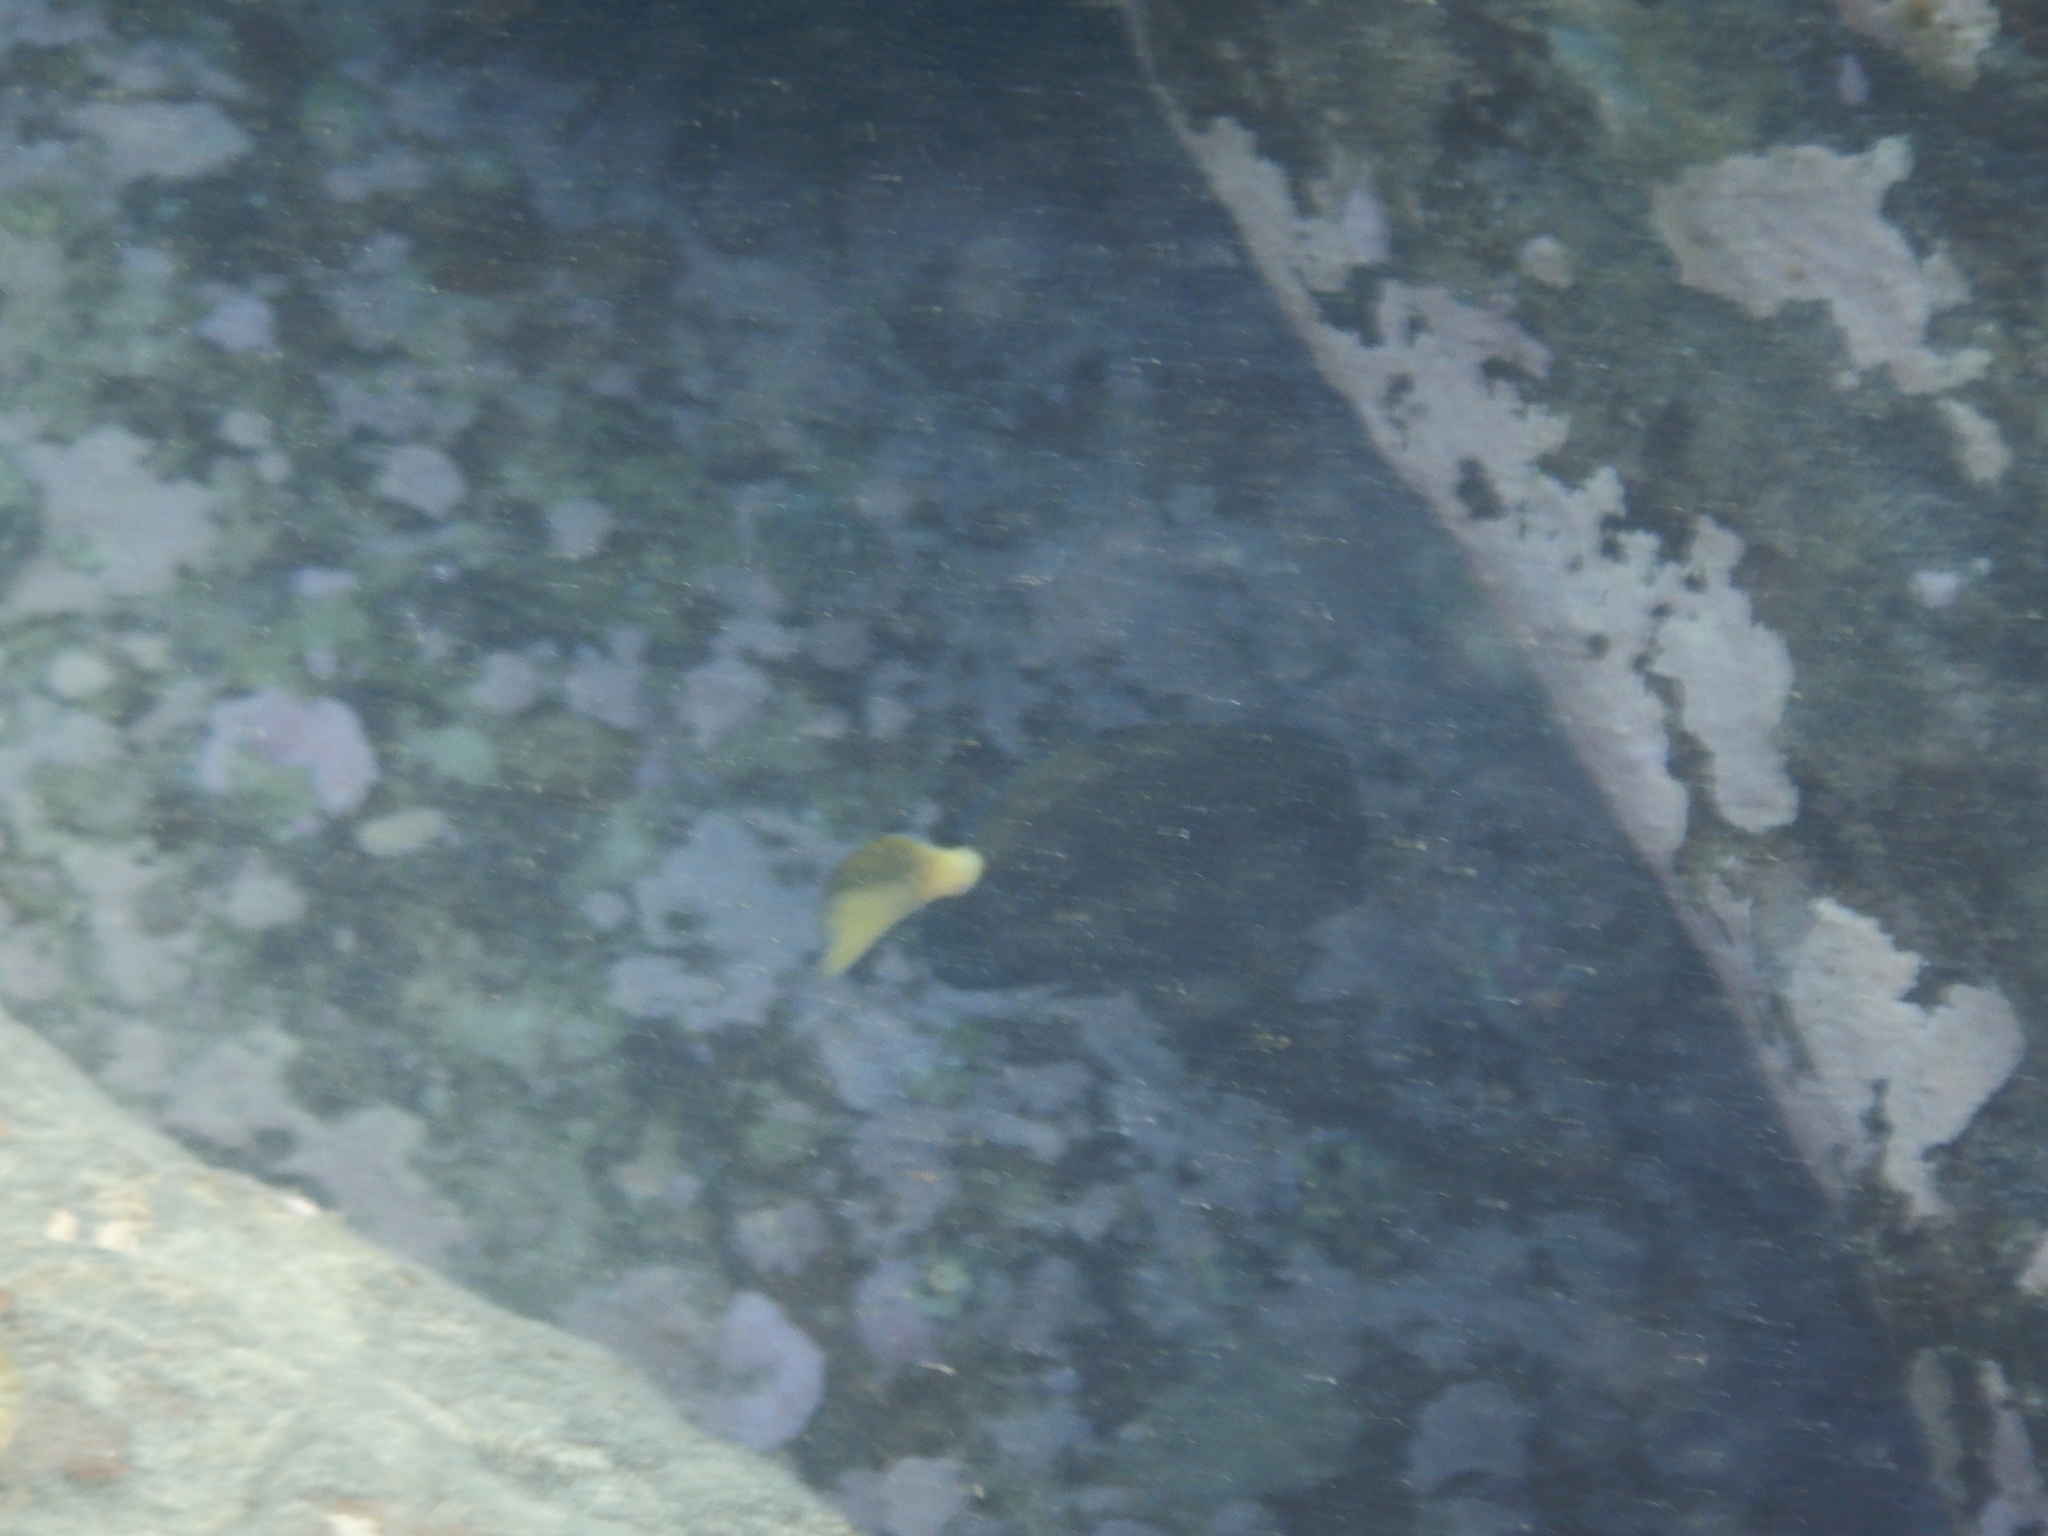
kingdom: Animalia
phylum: Chordata
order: Perciformes
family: Acanthuridae
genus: Prionurus
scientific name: Prionurus microlepidotus
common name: Sixplate sawtail
